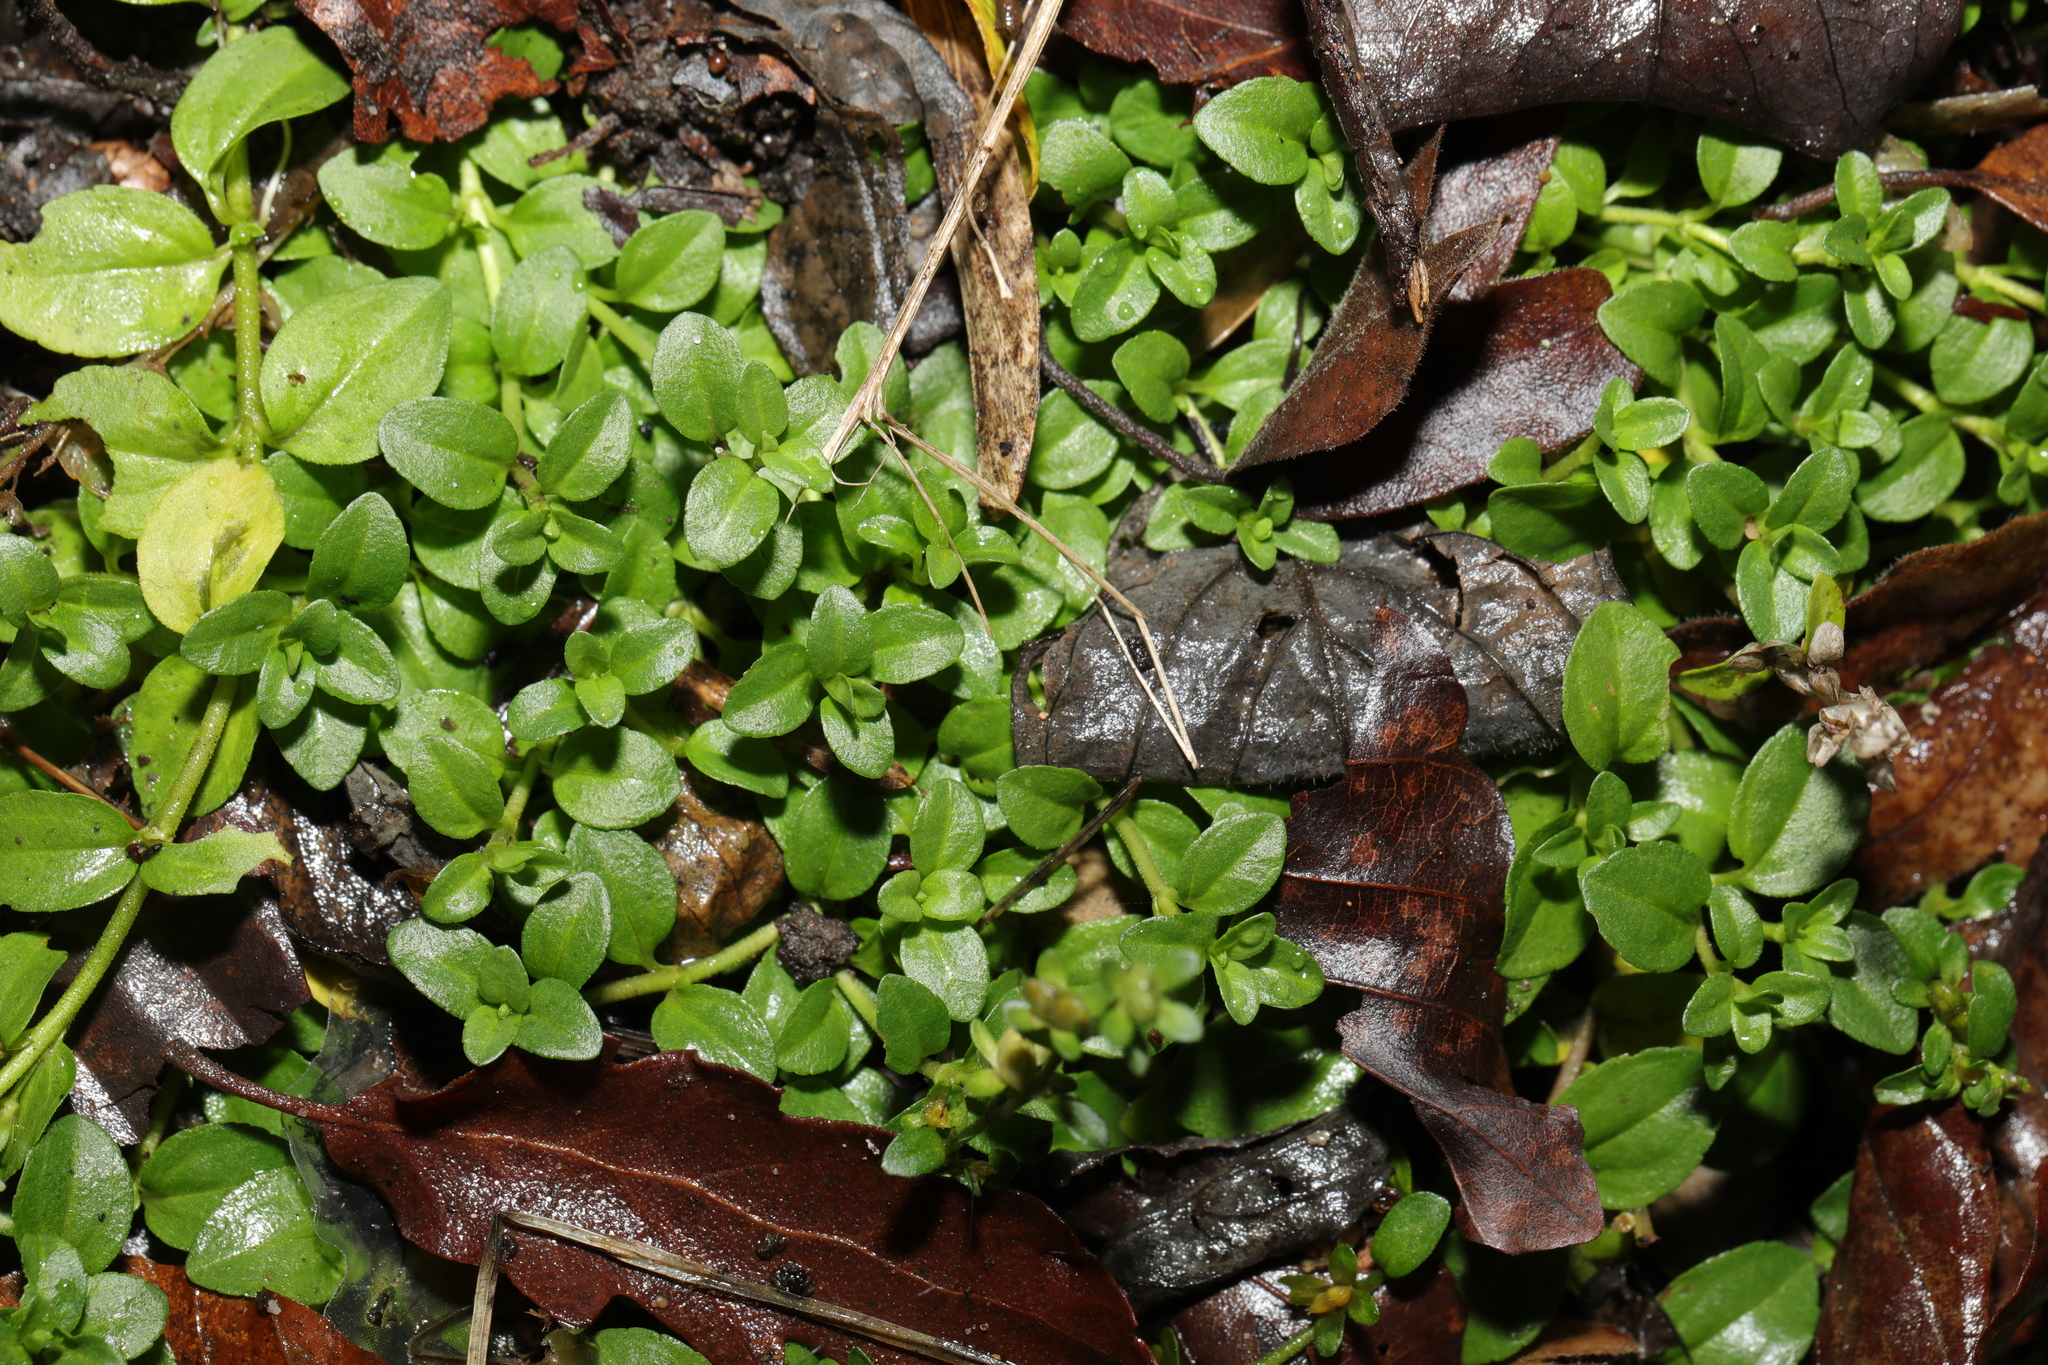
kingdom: Plantae
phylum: Tracheophyta
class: Magnoliopsida
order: Lamiales
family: Plantaginaceae
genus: Veronica
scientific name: Veronica serpyllifolia
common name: Thyme-leaved speedwell
